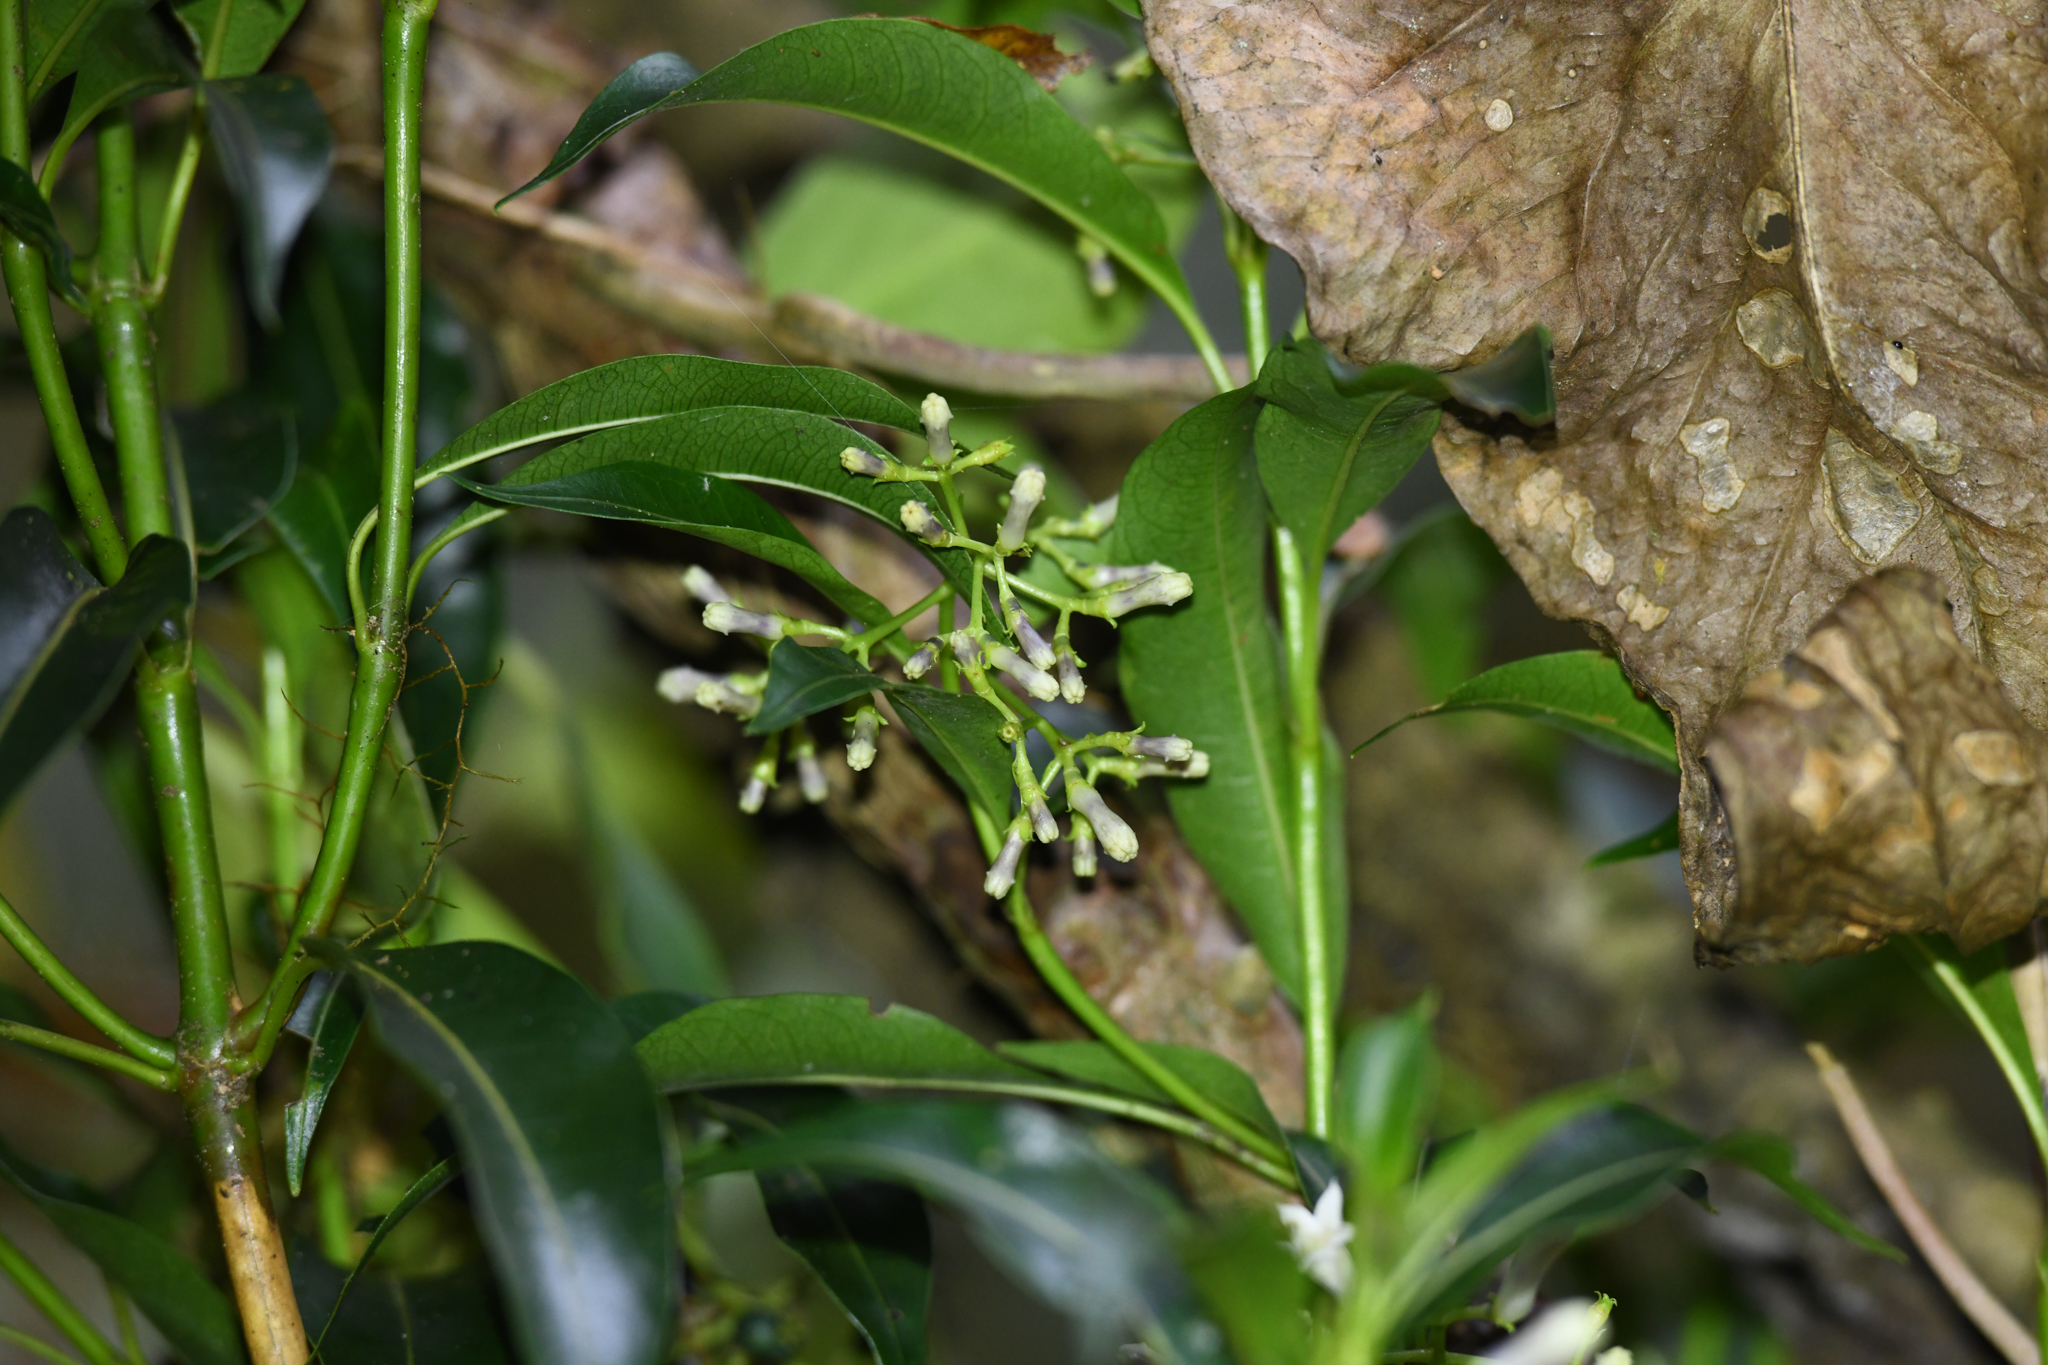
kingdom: Plantae
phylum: Tracheophyta
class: Magnoliopsida
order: Gentianales
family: Rubiaceae
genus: Palicourea
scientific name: Palicourea salicifolia
